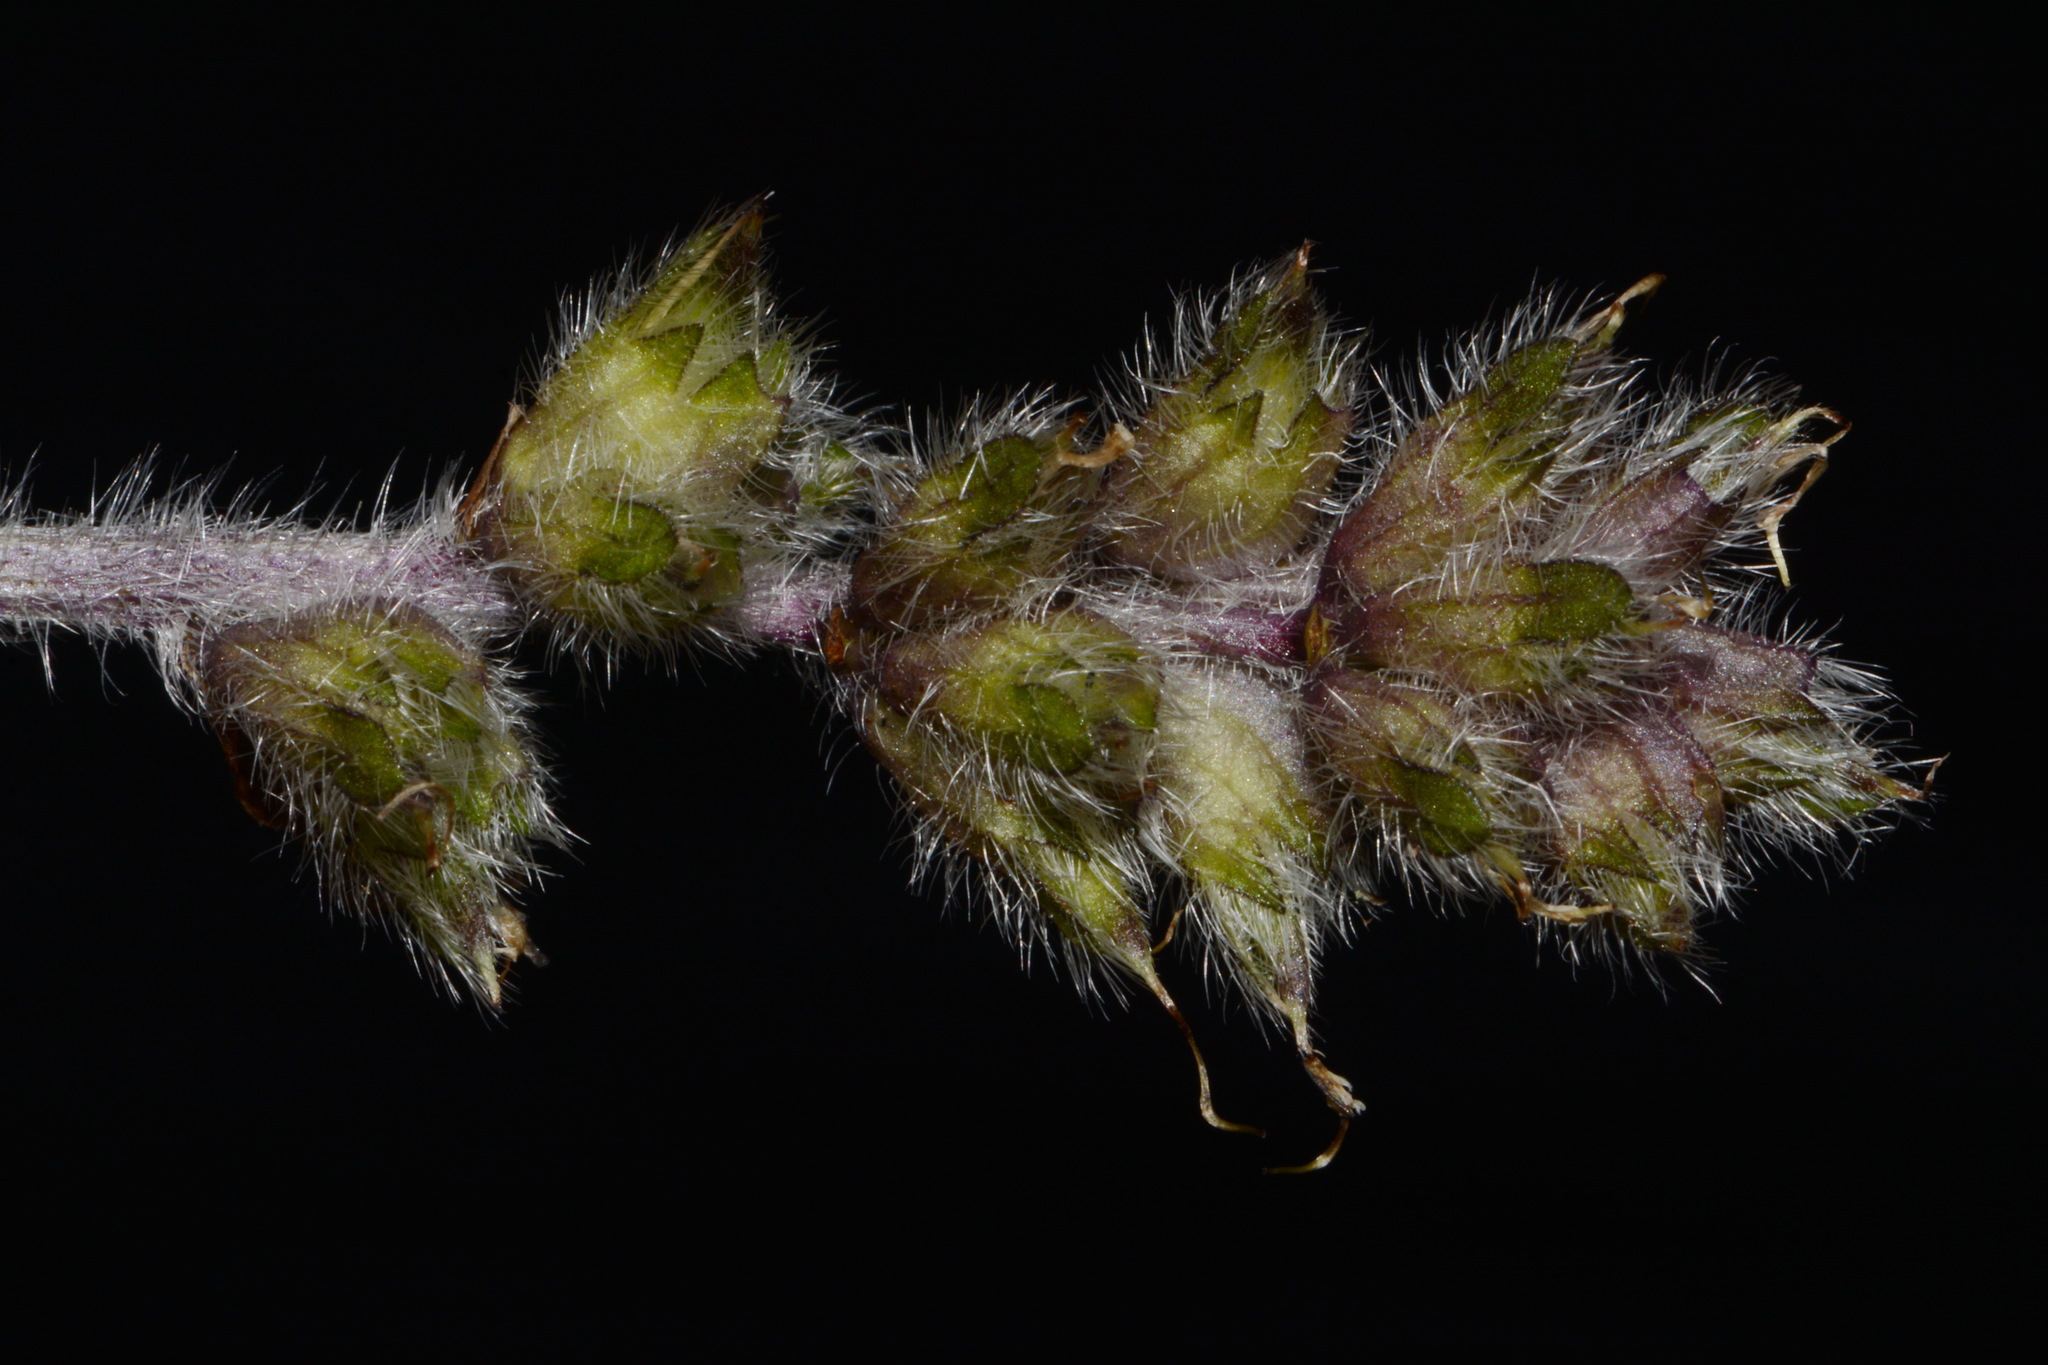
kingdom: Plantae
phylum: Tracheophyta
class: Magnoliopsida
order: Fabales
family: Fabaceae
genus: Pediomelum
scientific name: Pediomelum subacaule
